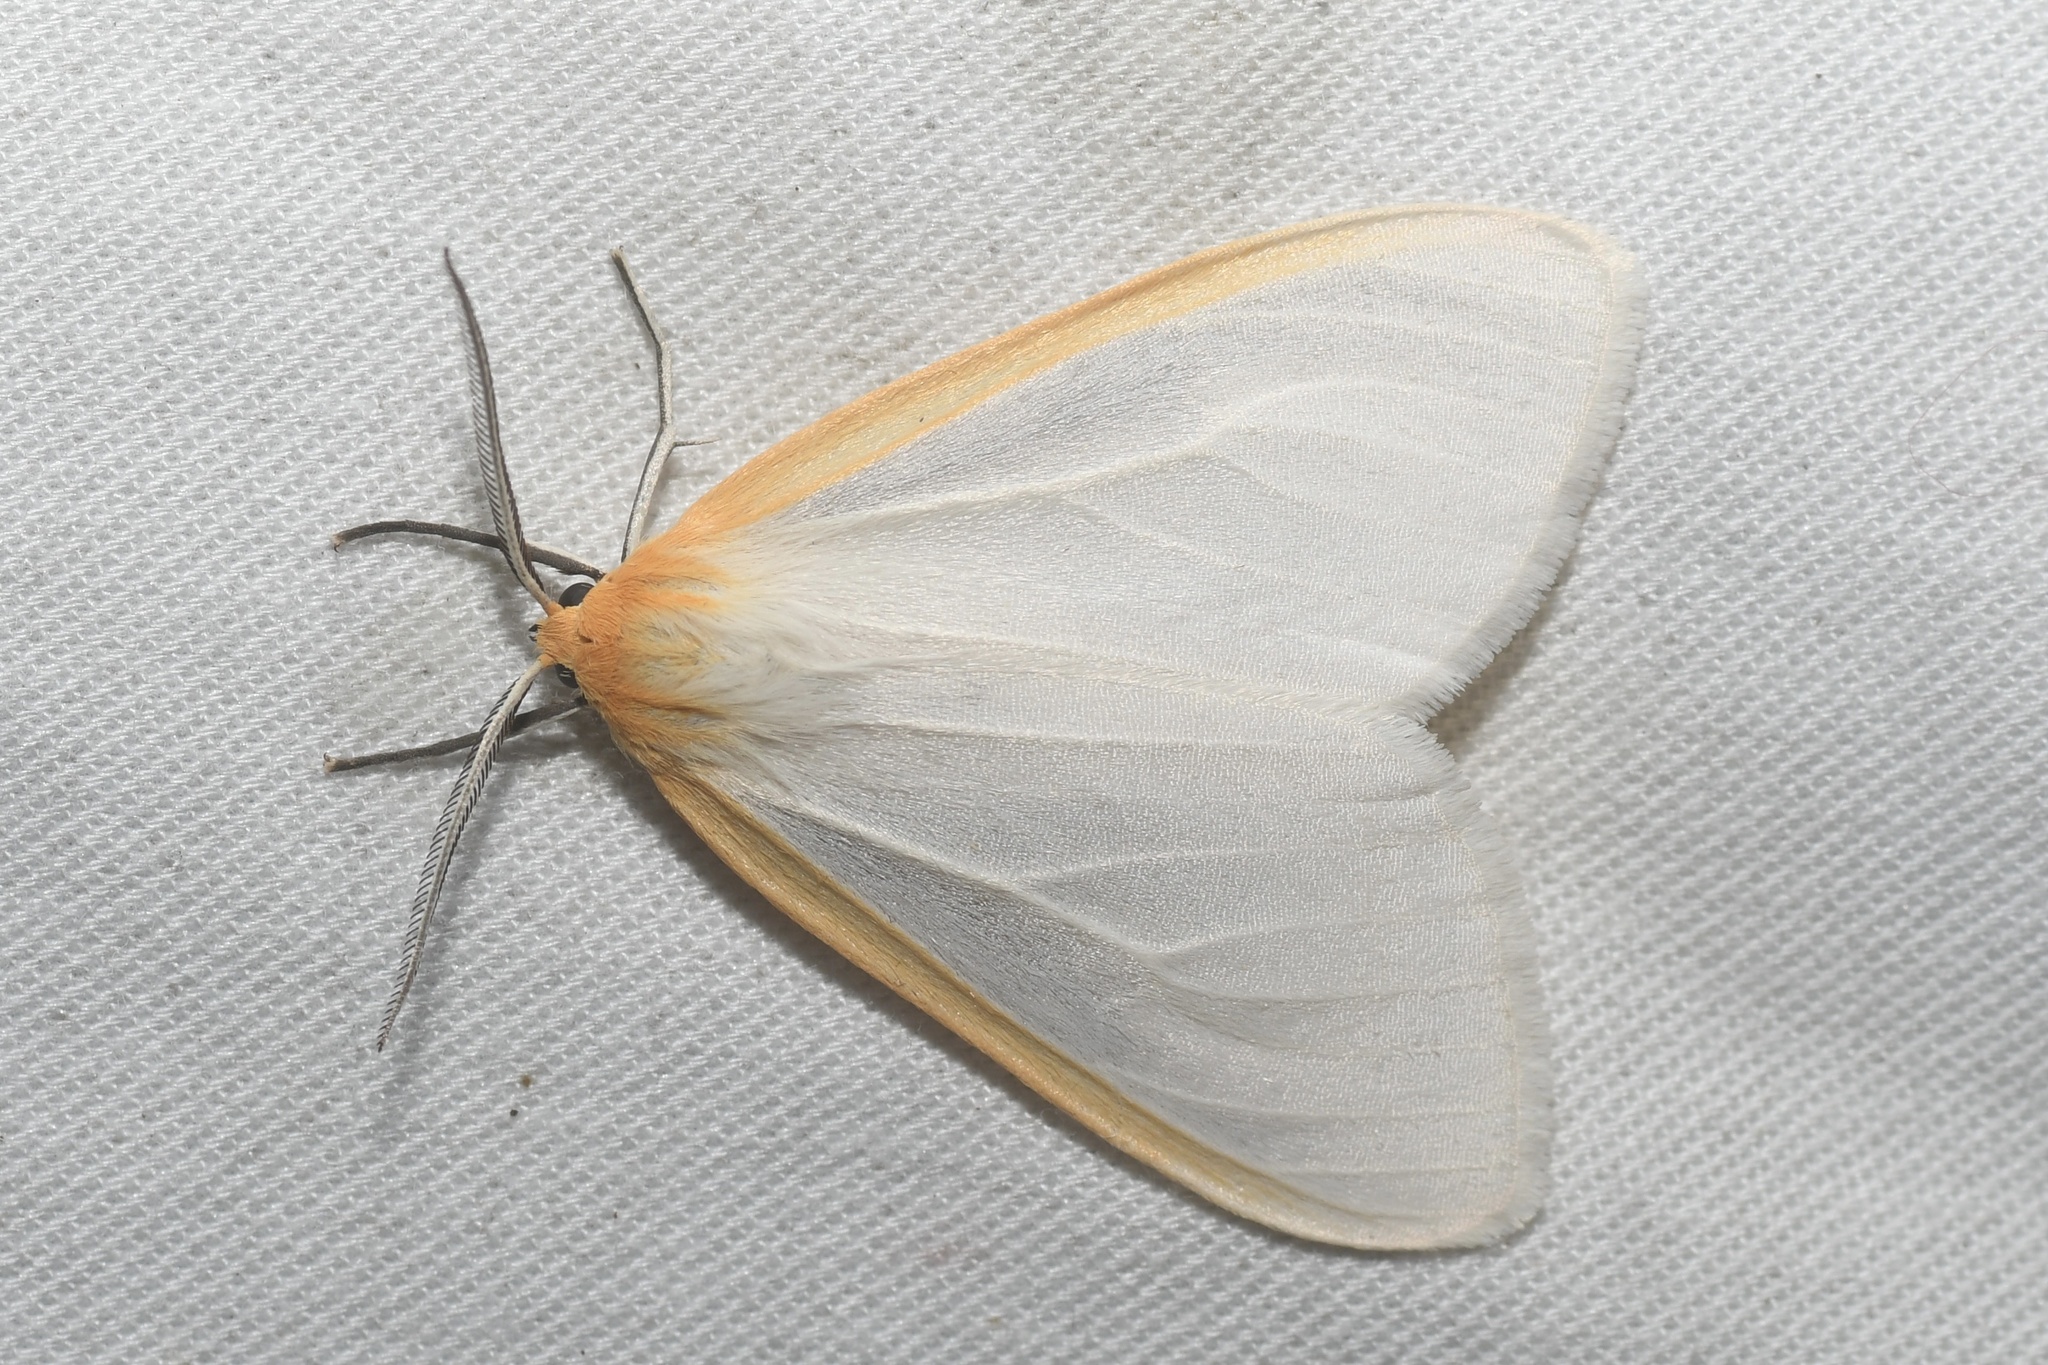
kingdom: Animalia
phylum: Arthropoda
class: Insecta
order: Lepidoptera
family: Erebidae
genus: Cycnia
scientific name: Cycnia tenera
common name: Delicate cycnia moth
